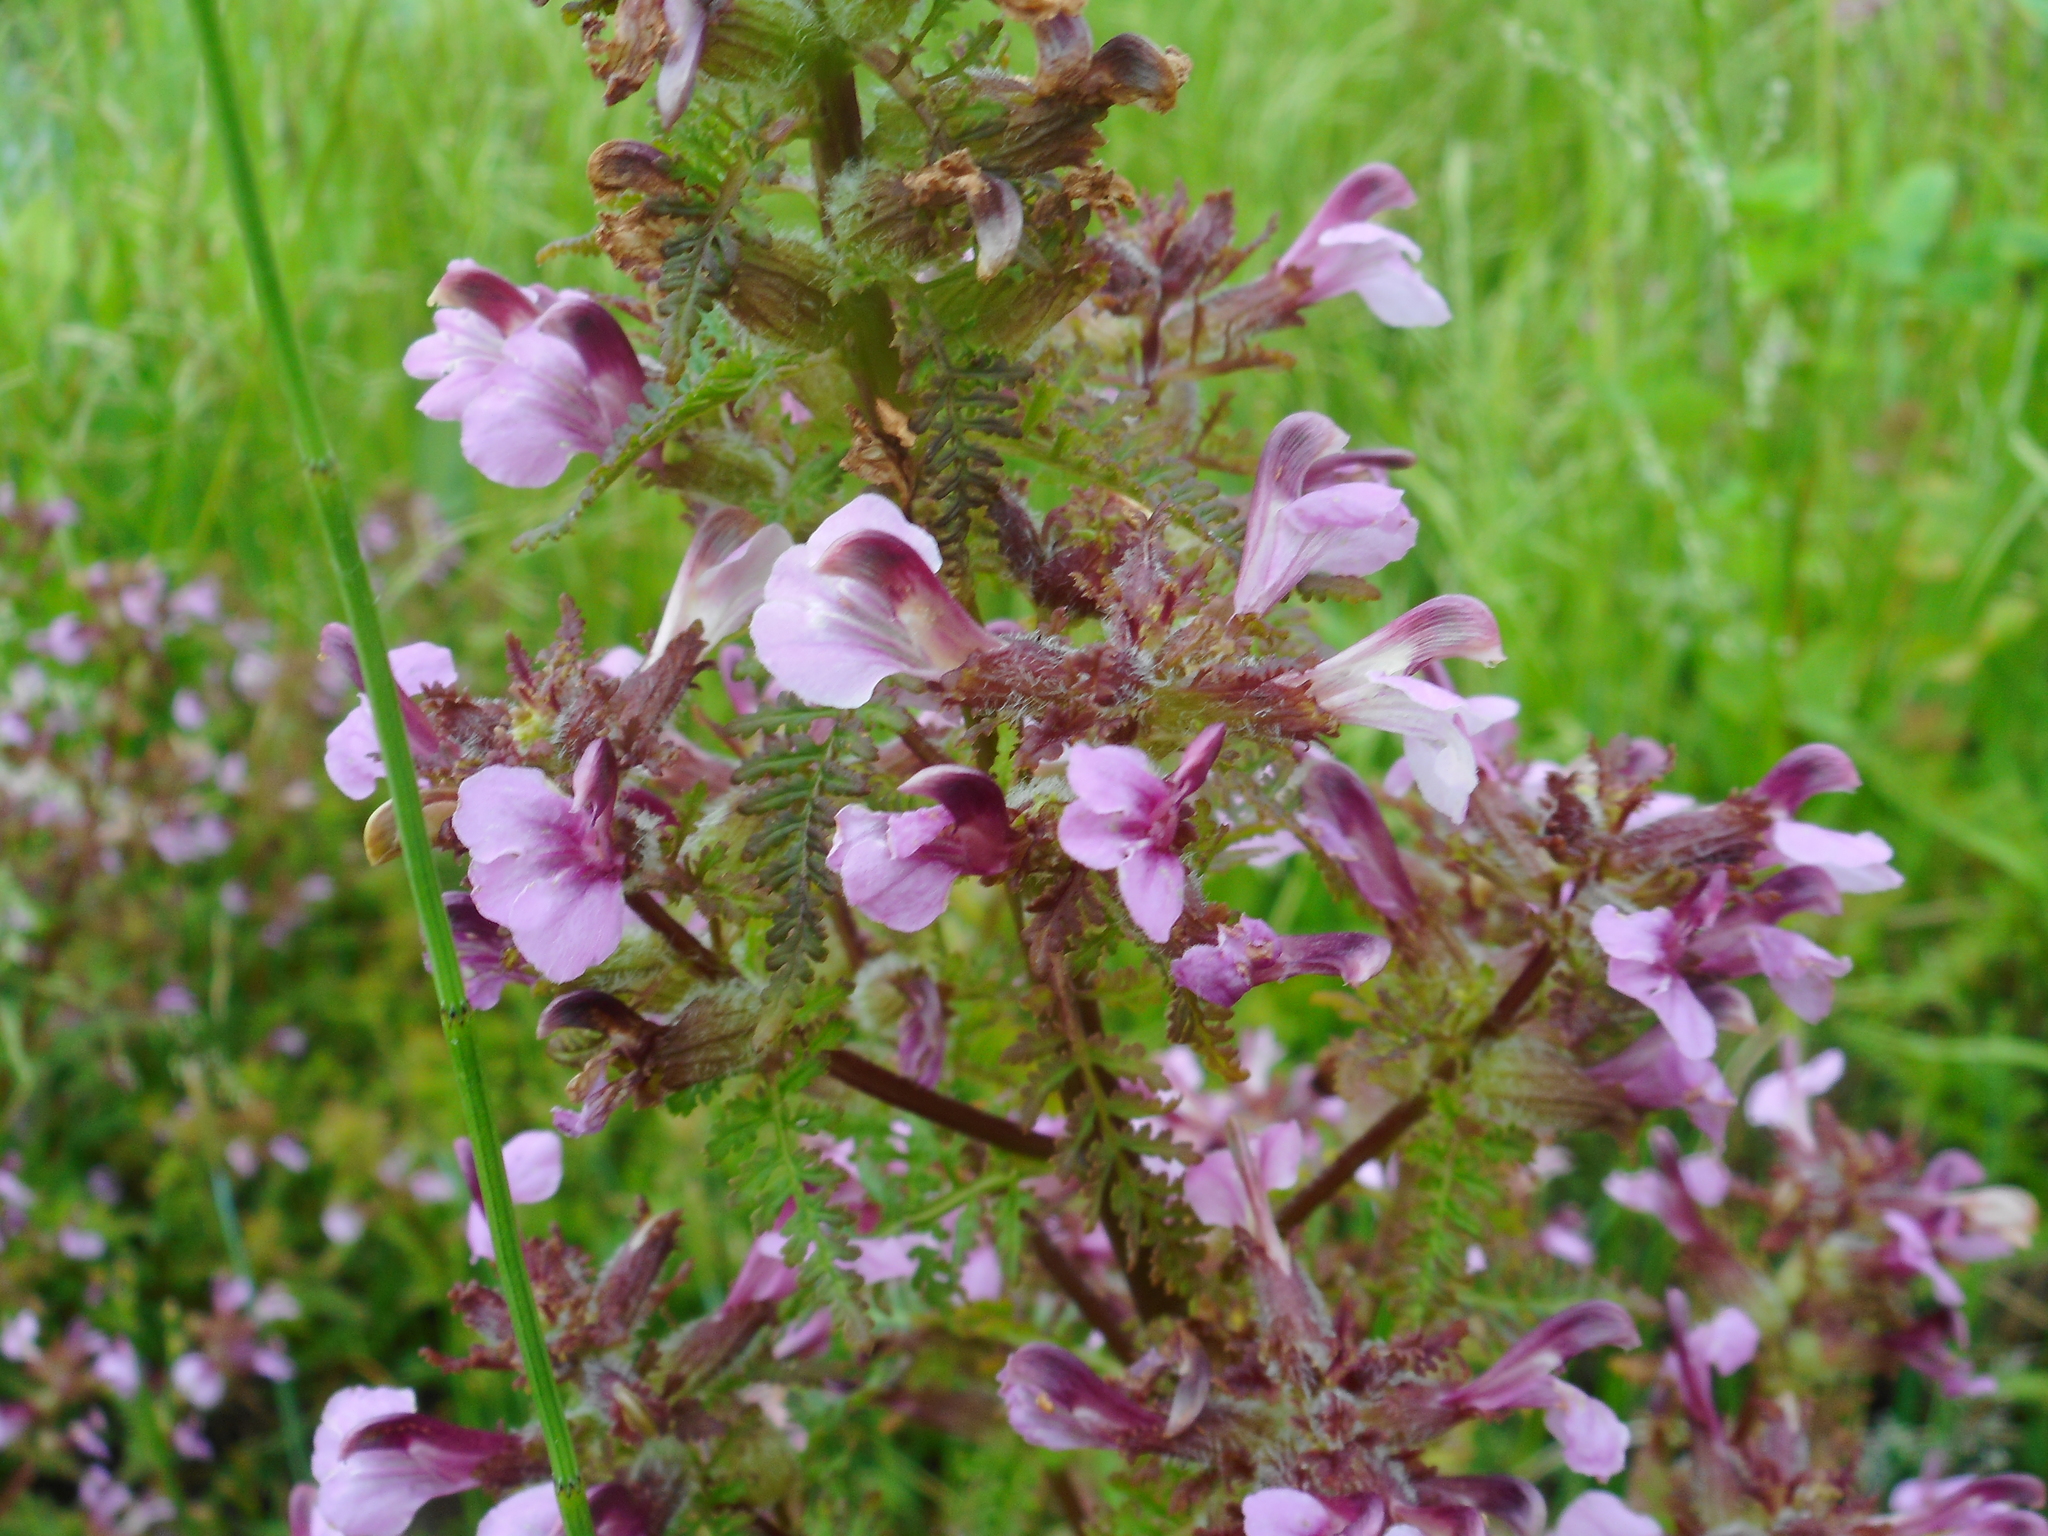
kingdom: Plantae
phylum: Tracheophyta
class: Magnoliopsida
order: Lamiales
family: Orobanchaceae
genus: Pedicularis
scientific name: Pedicularis palustris
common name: Marsh lousewort
